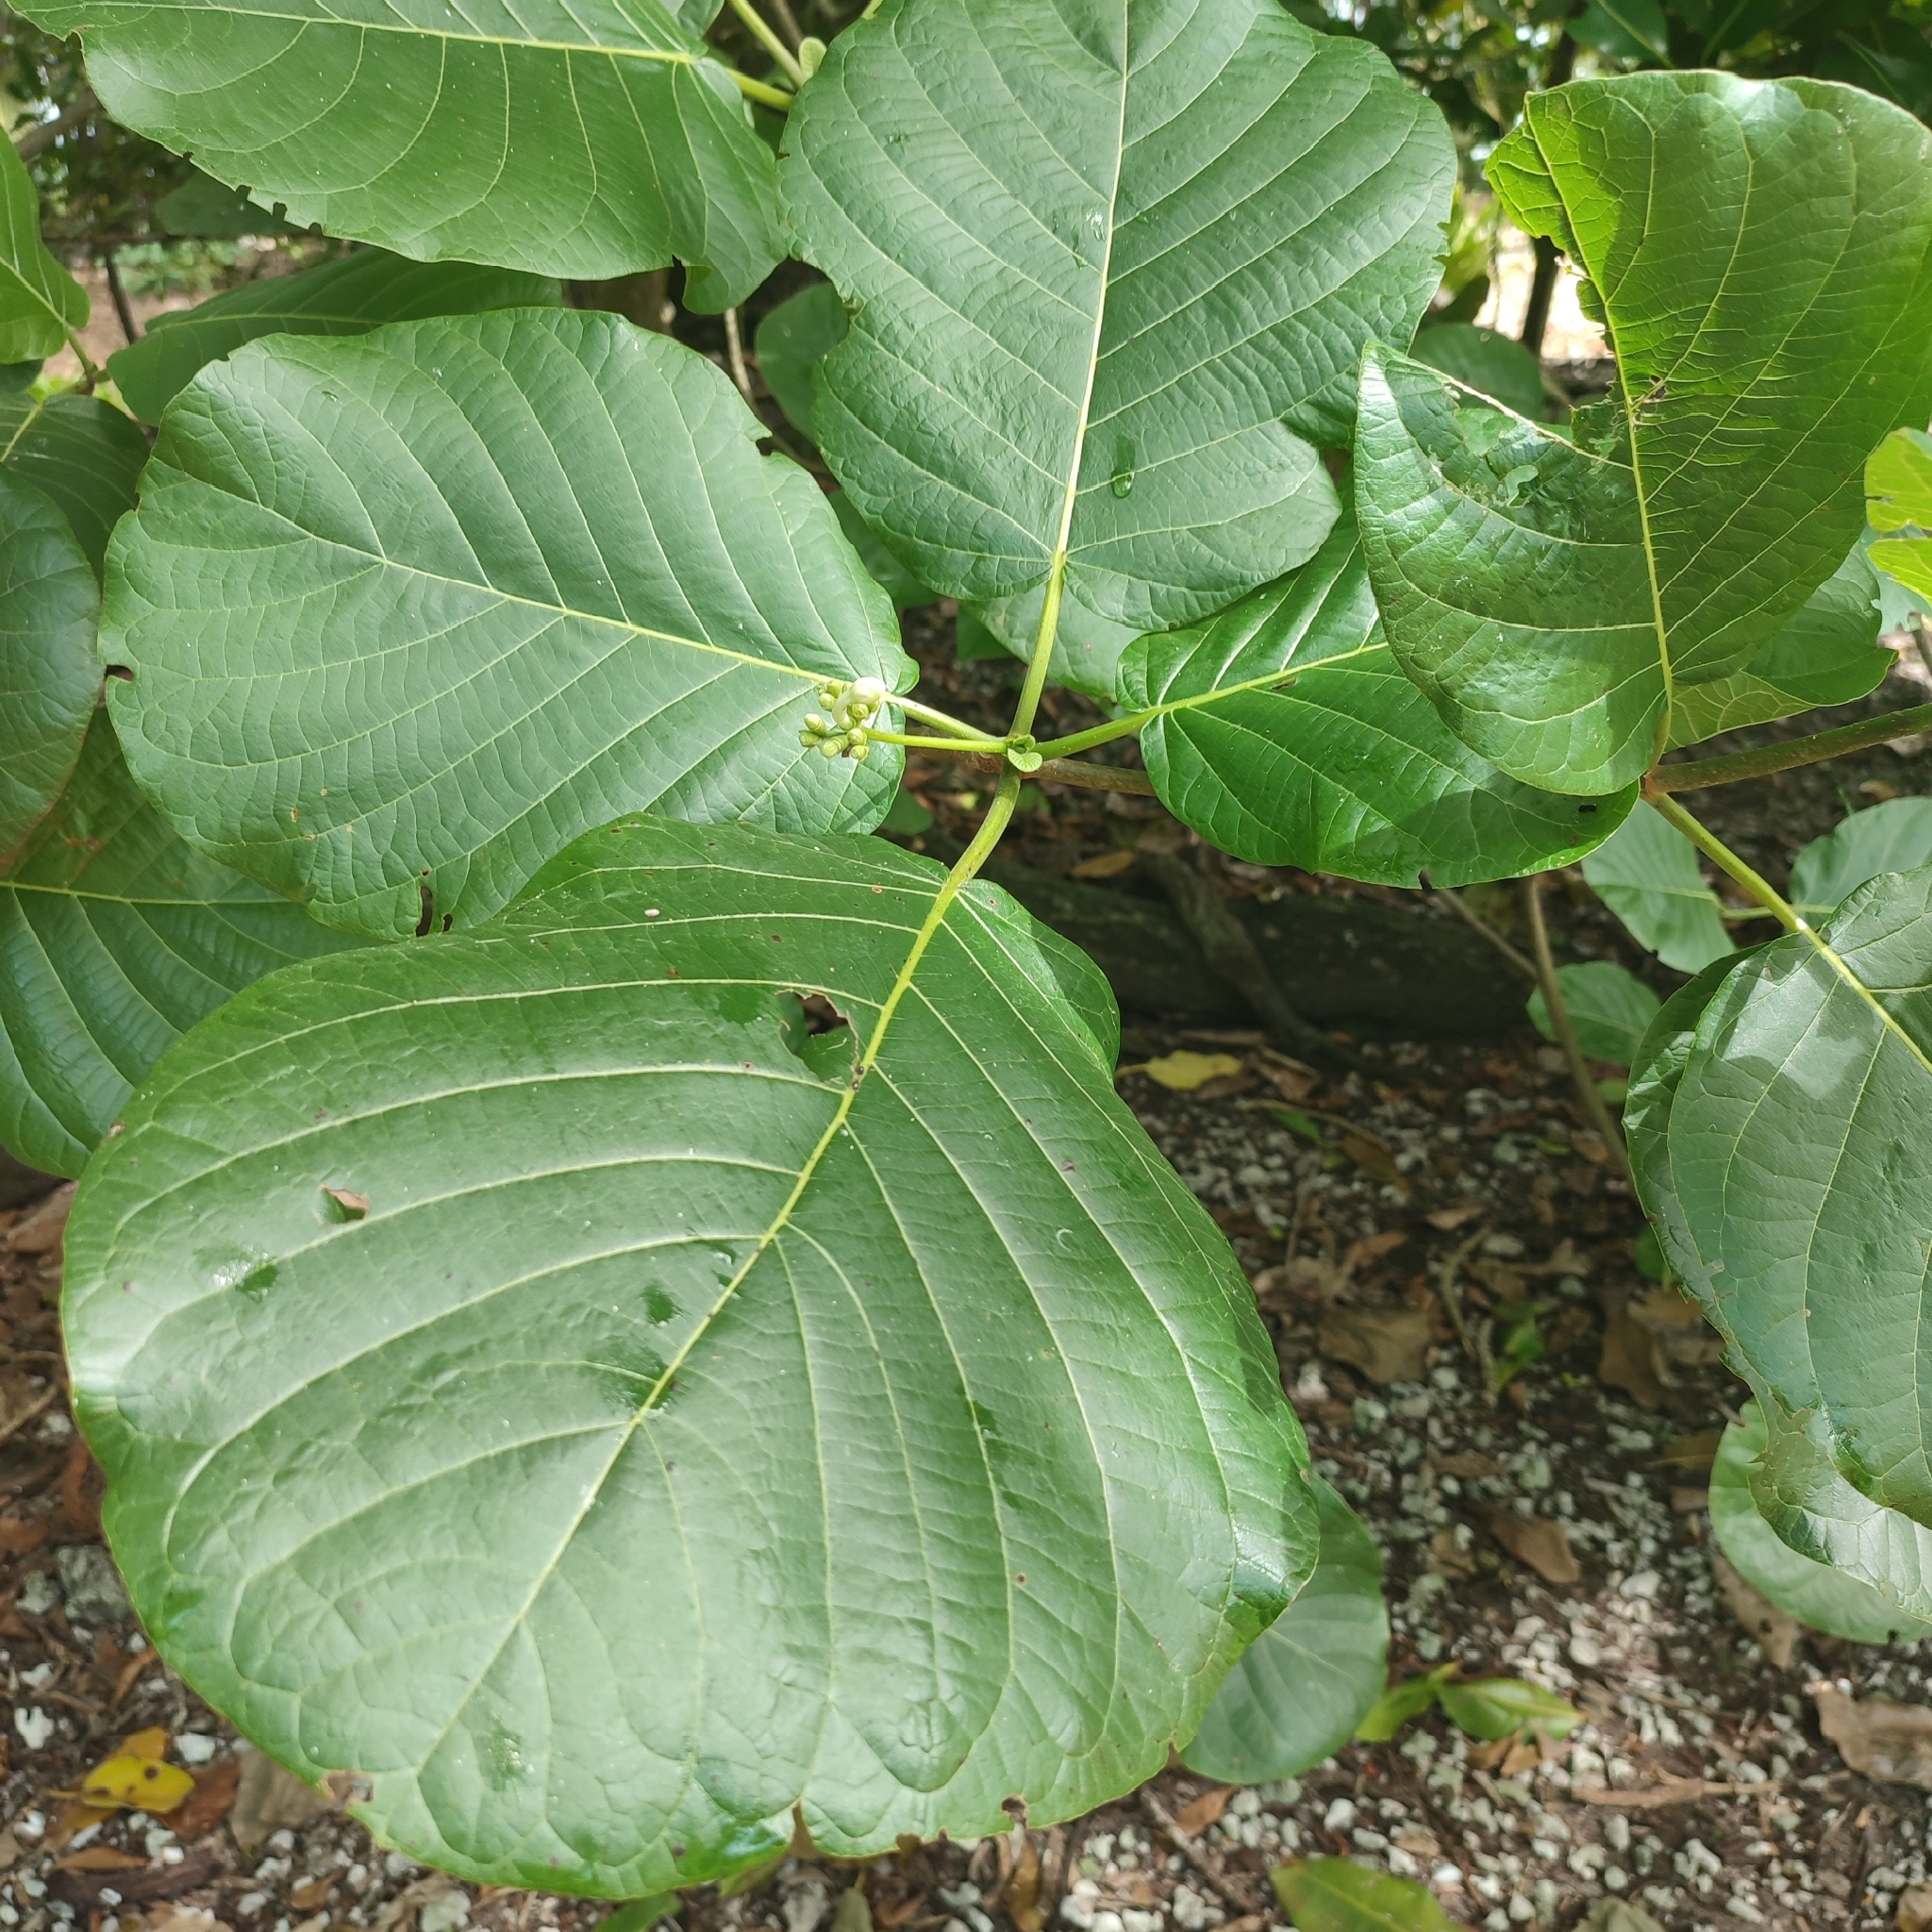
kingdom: Plantae
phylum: Tracheophyta
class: Magnoliopsida
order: Gentianales
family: Rubiaceae
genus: Guettarda
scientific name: Guettarda speciosa
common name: Sea randa
